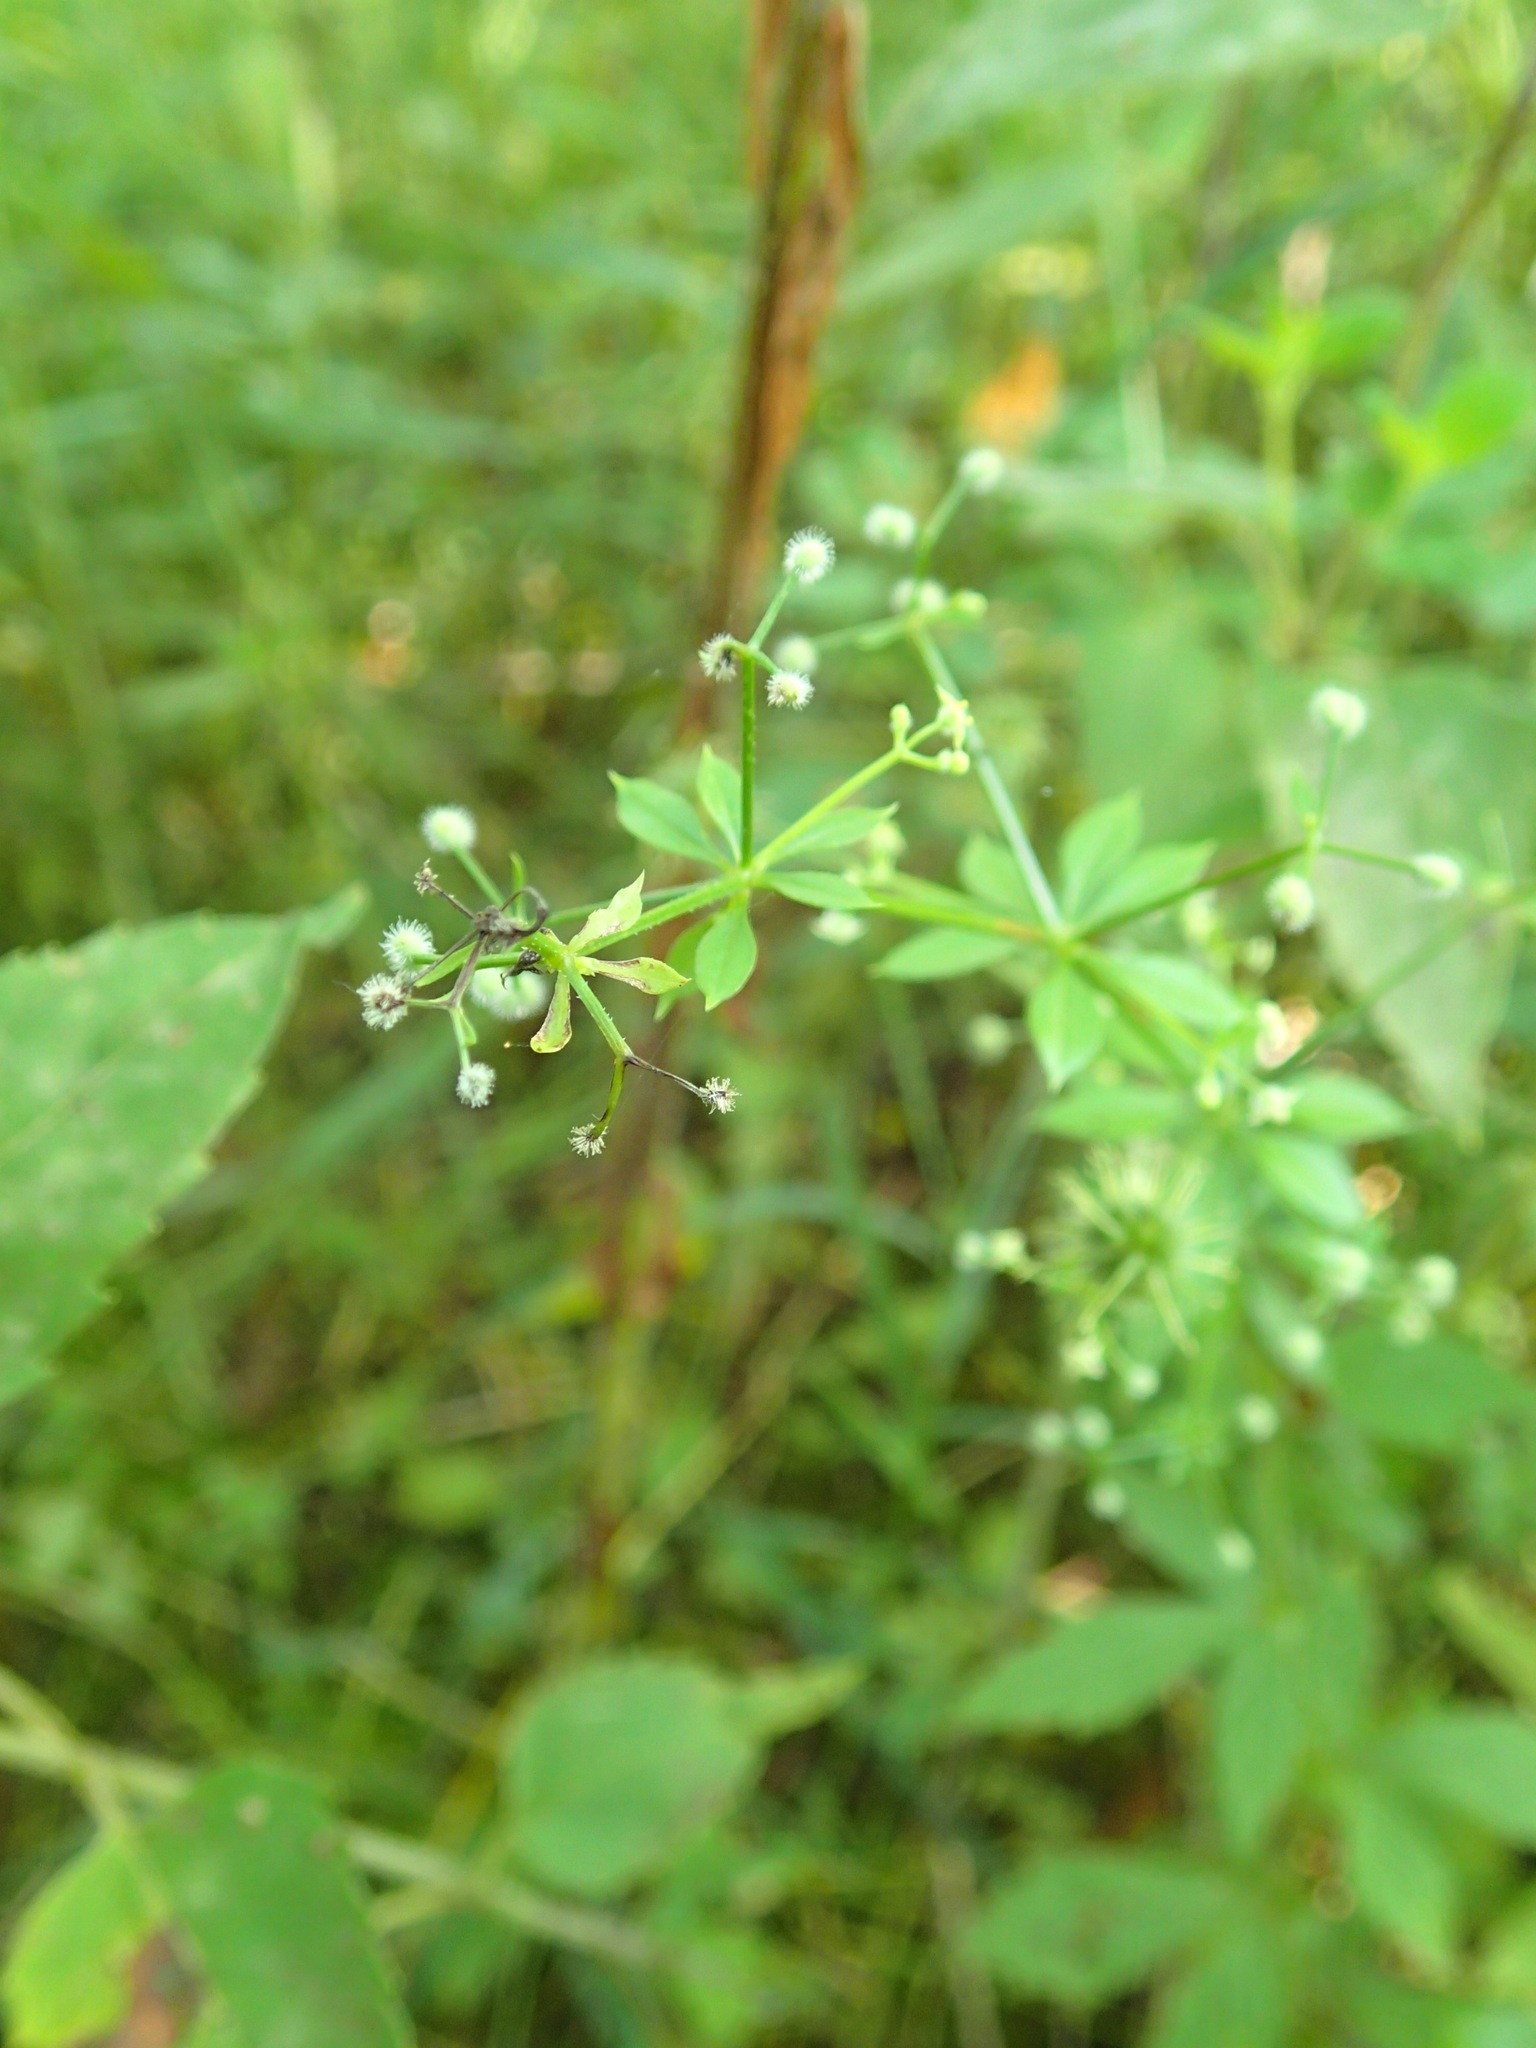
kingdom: Plantae
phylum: Tracheophyta
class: Magnoliopsida
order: Gentianales
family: Rubiaceae
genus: Galium
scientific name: Galium triflorum
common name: Fragrant bedstraw
